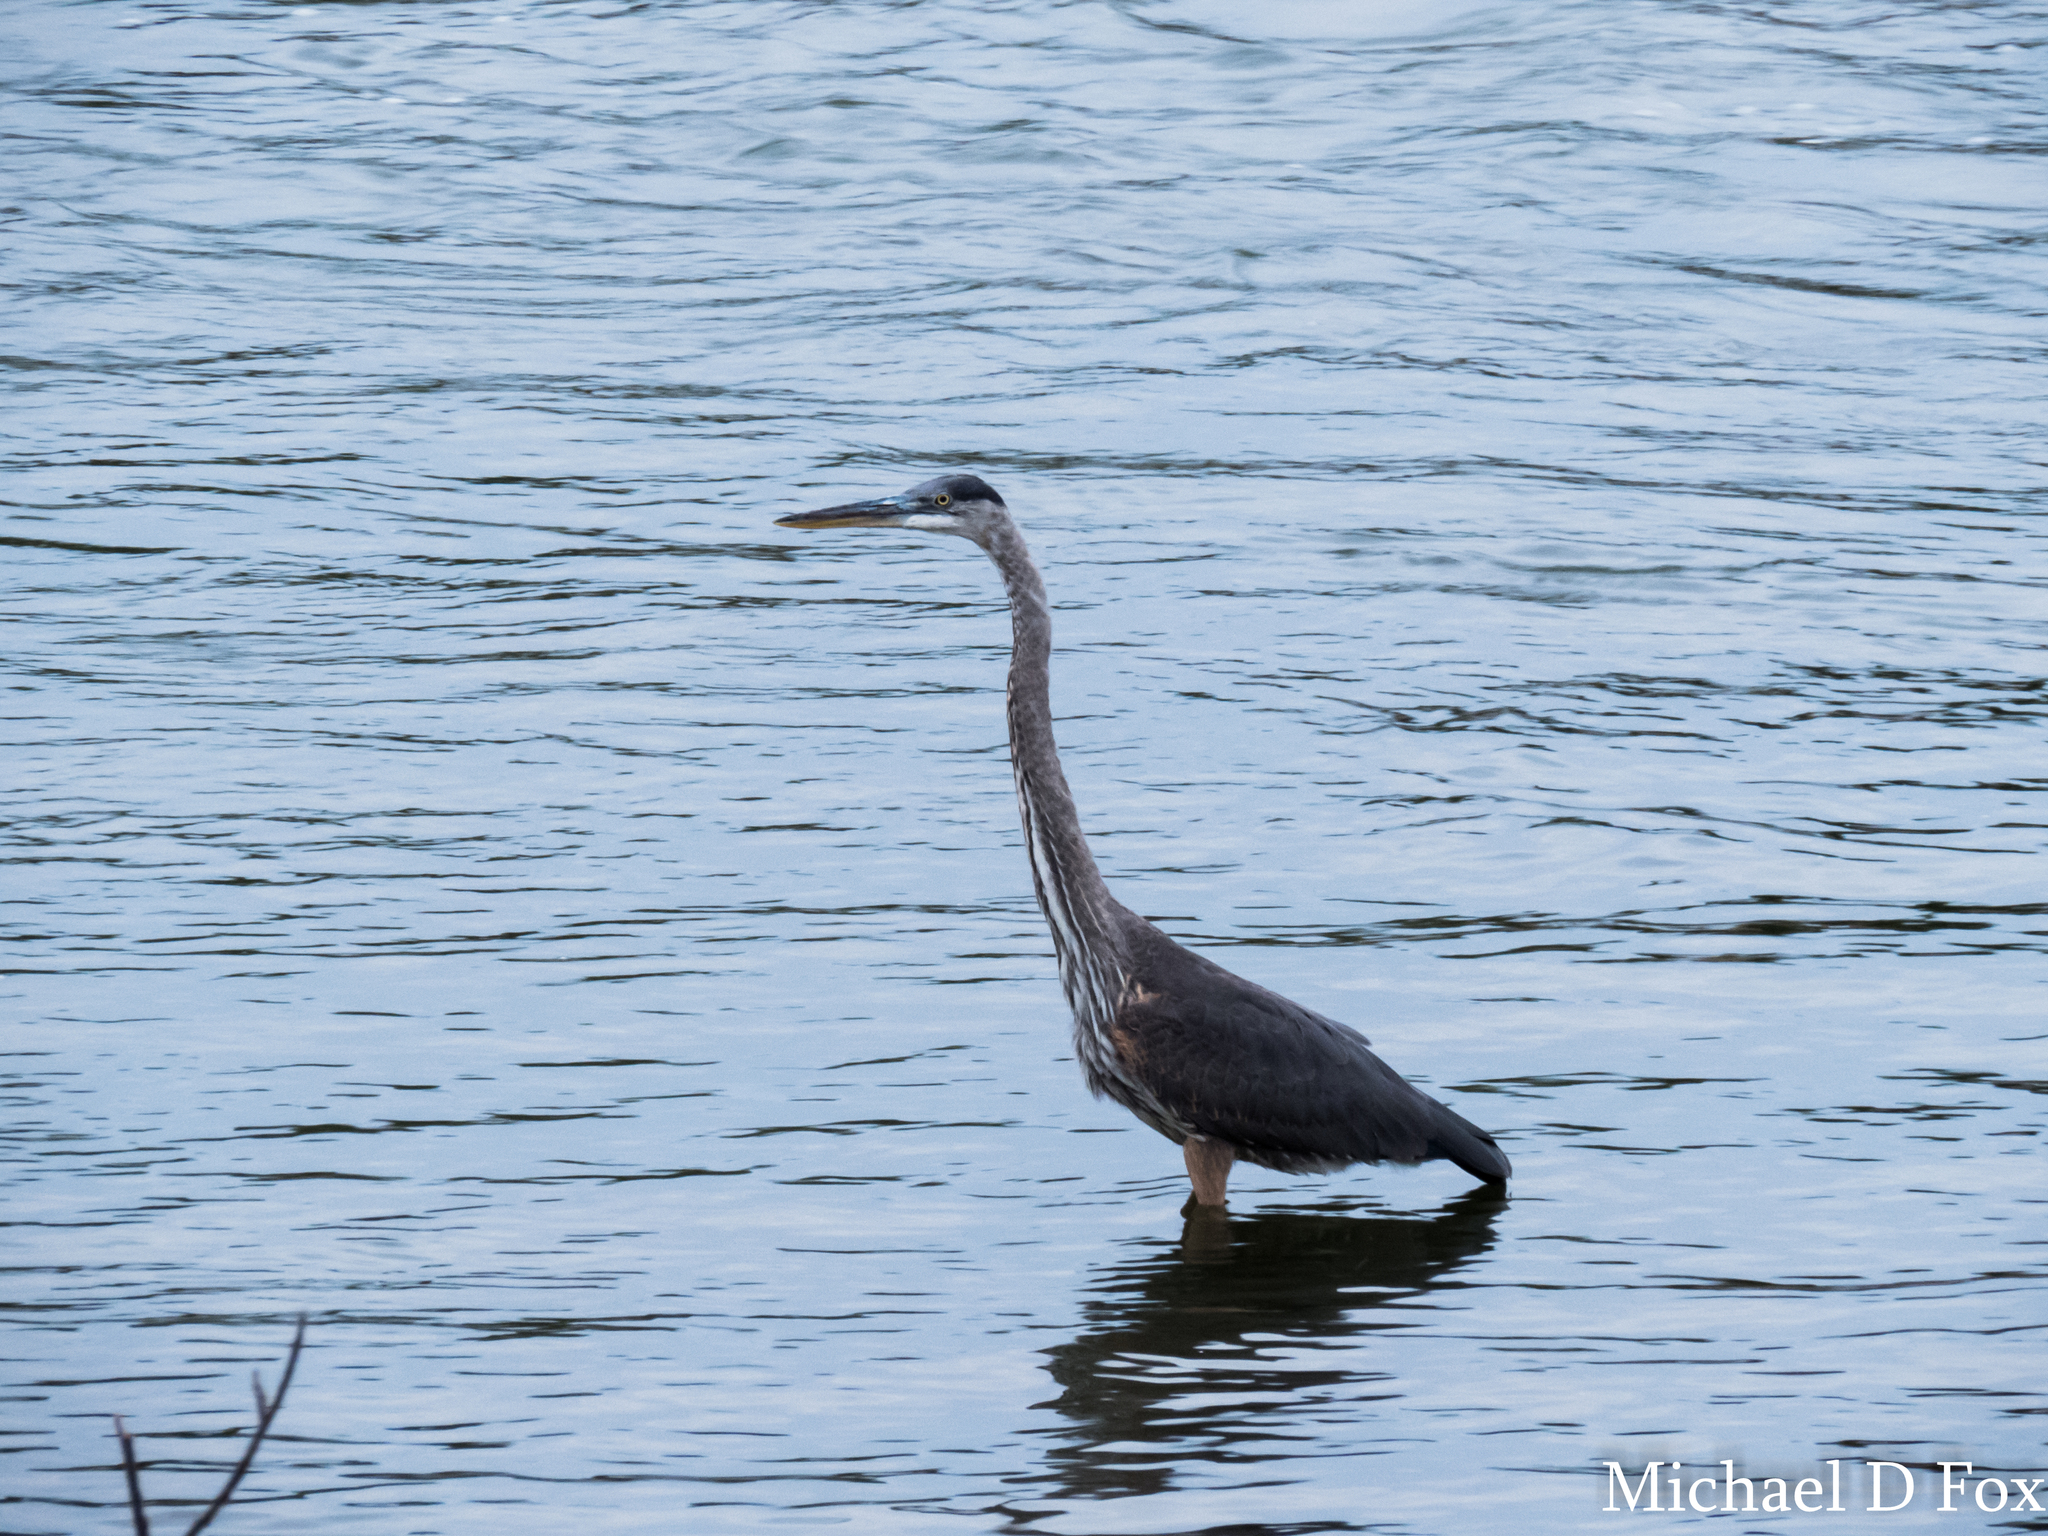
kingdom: Animalia
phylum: Chordata
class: Aves
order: Pelecaniformes
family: Ardeidae
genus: Ardea
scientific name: Ardea herodias
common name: Great blue heron
